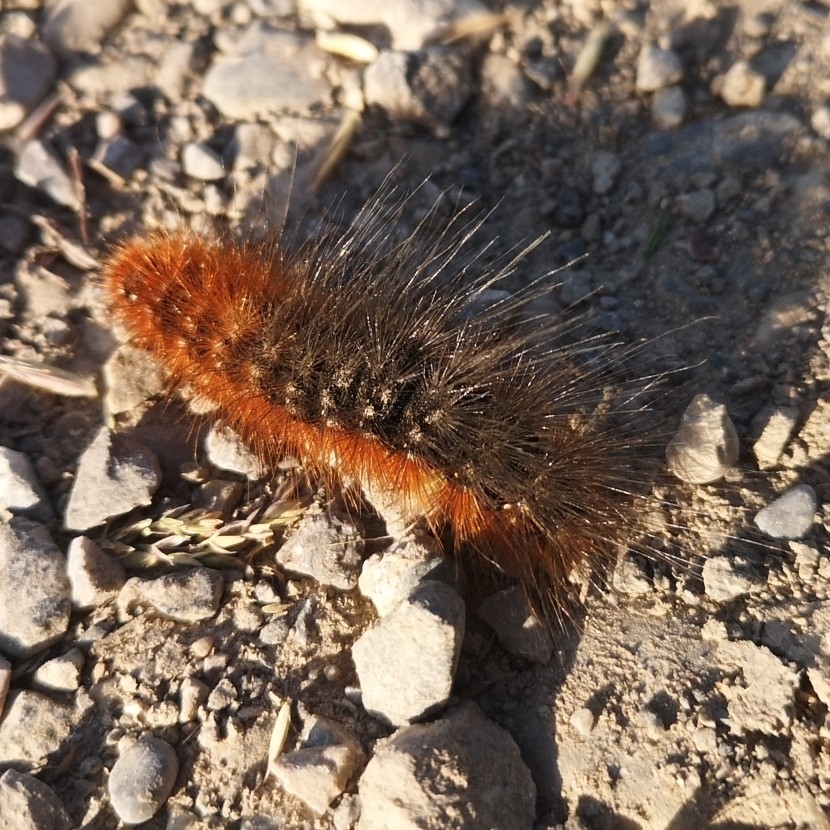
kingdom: Animalia
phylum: Arthropoda
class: Insecta
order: Lepidoptera
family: Erebidae
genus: Arctia
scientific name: Arctia caja
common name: Garden tiger
